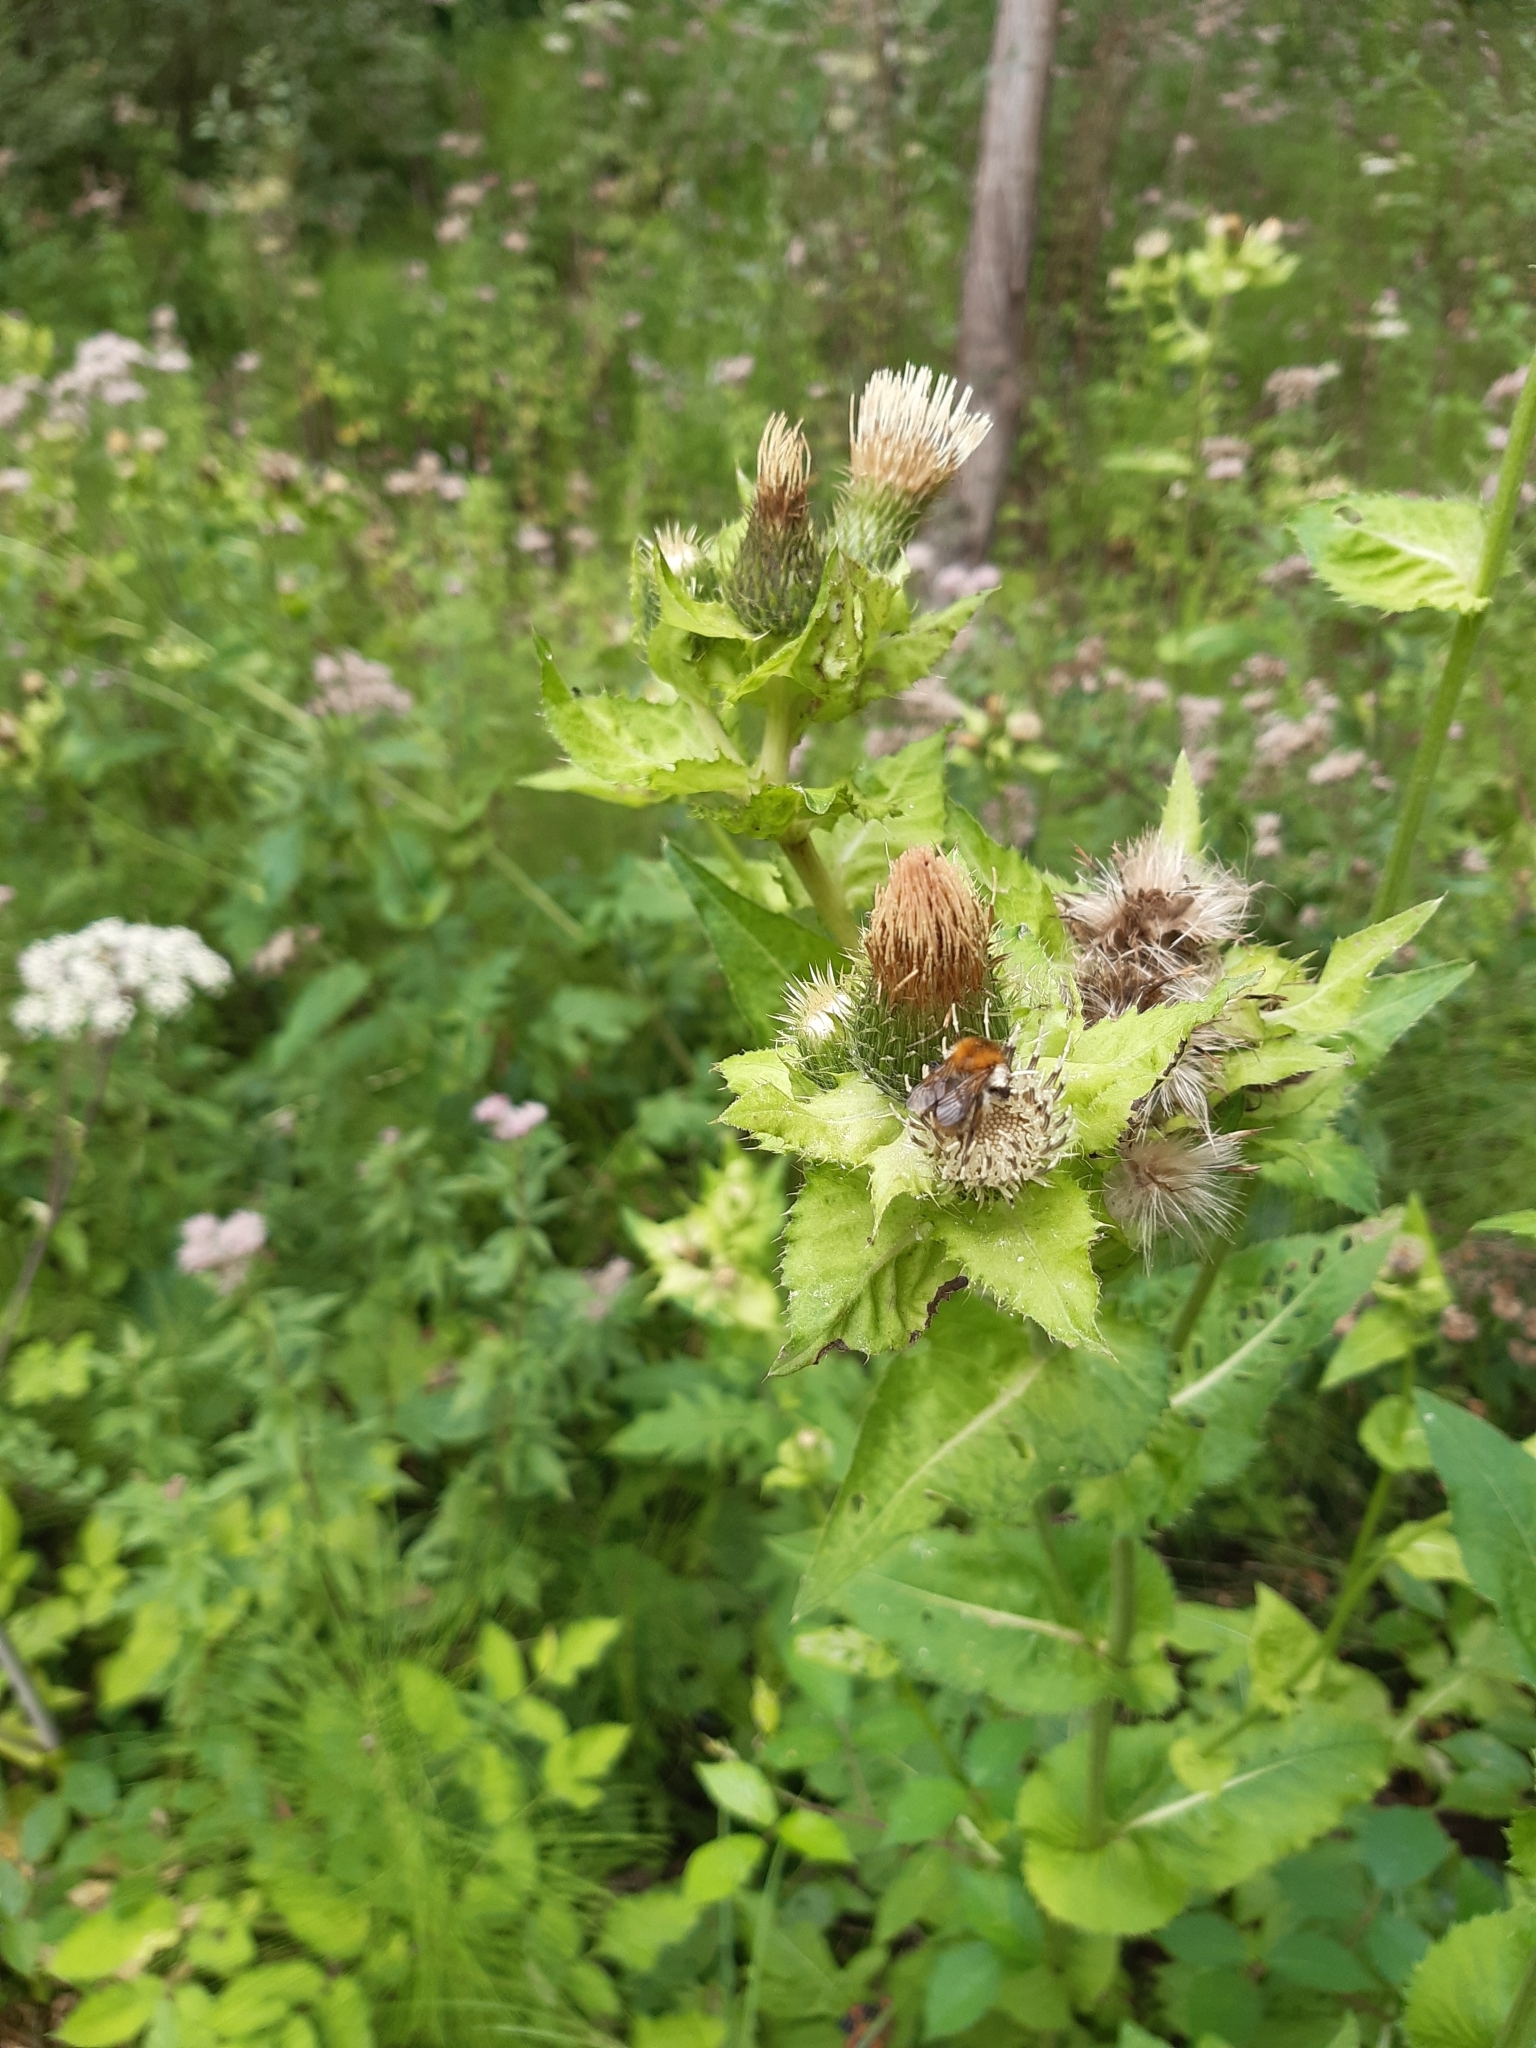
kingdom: Plantae
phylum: Tracheophyta
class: Magnoliopsida
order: Asterales
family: Asteraceae
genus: Cirsium
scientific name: Cirsium oleraceum
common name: Cabbage thistle
